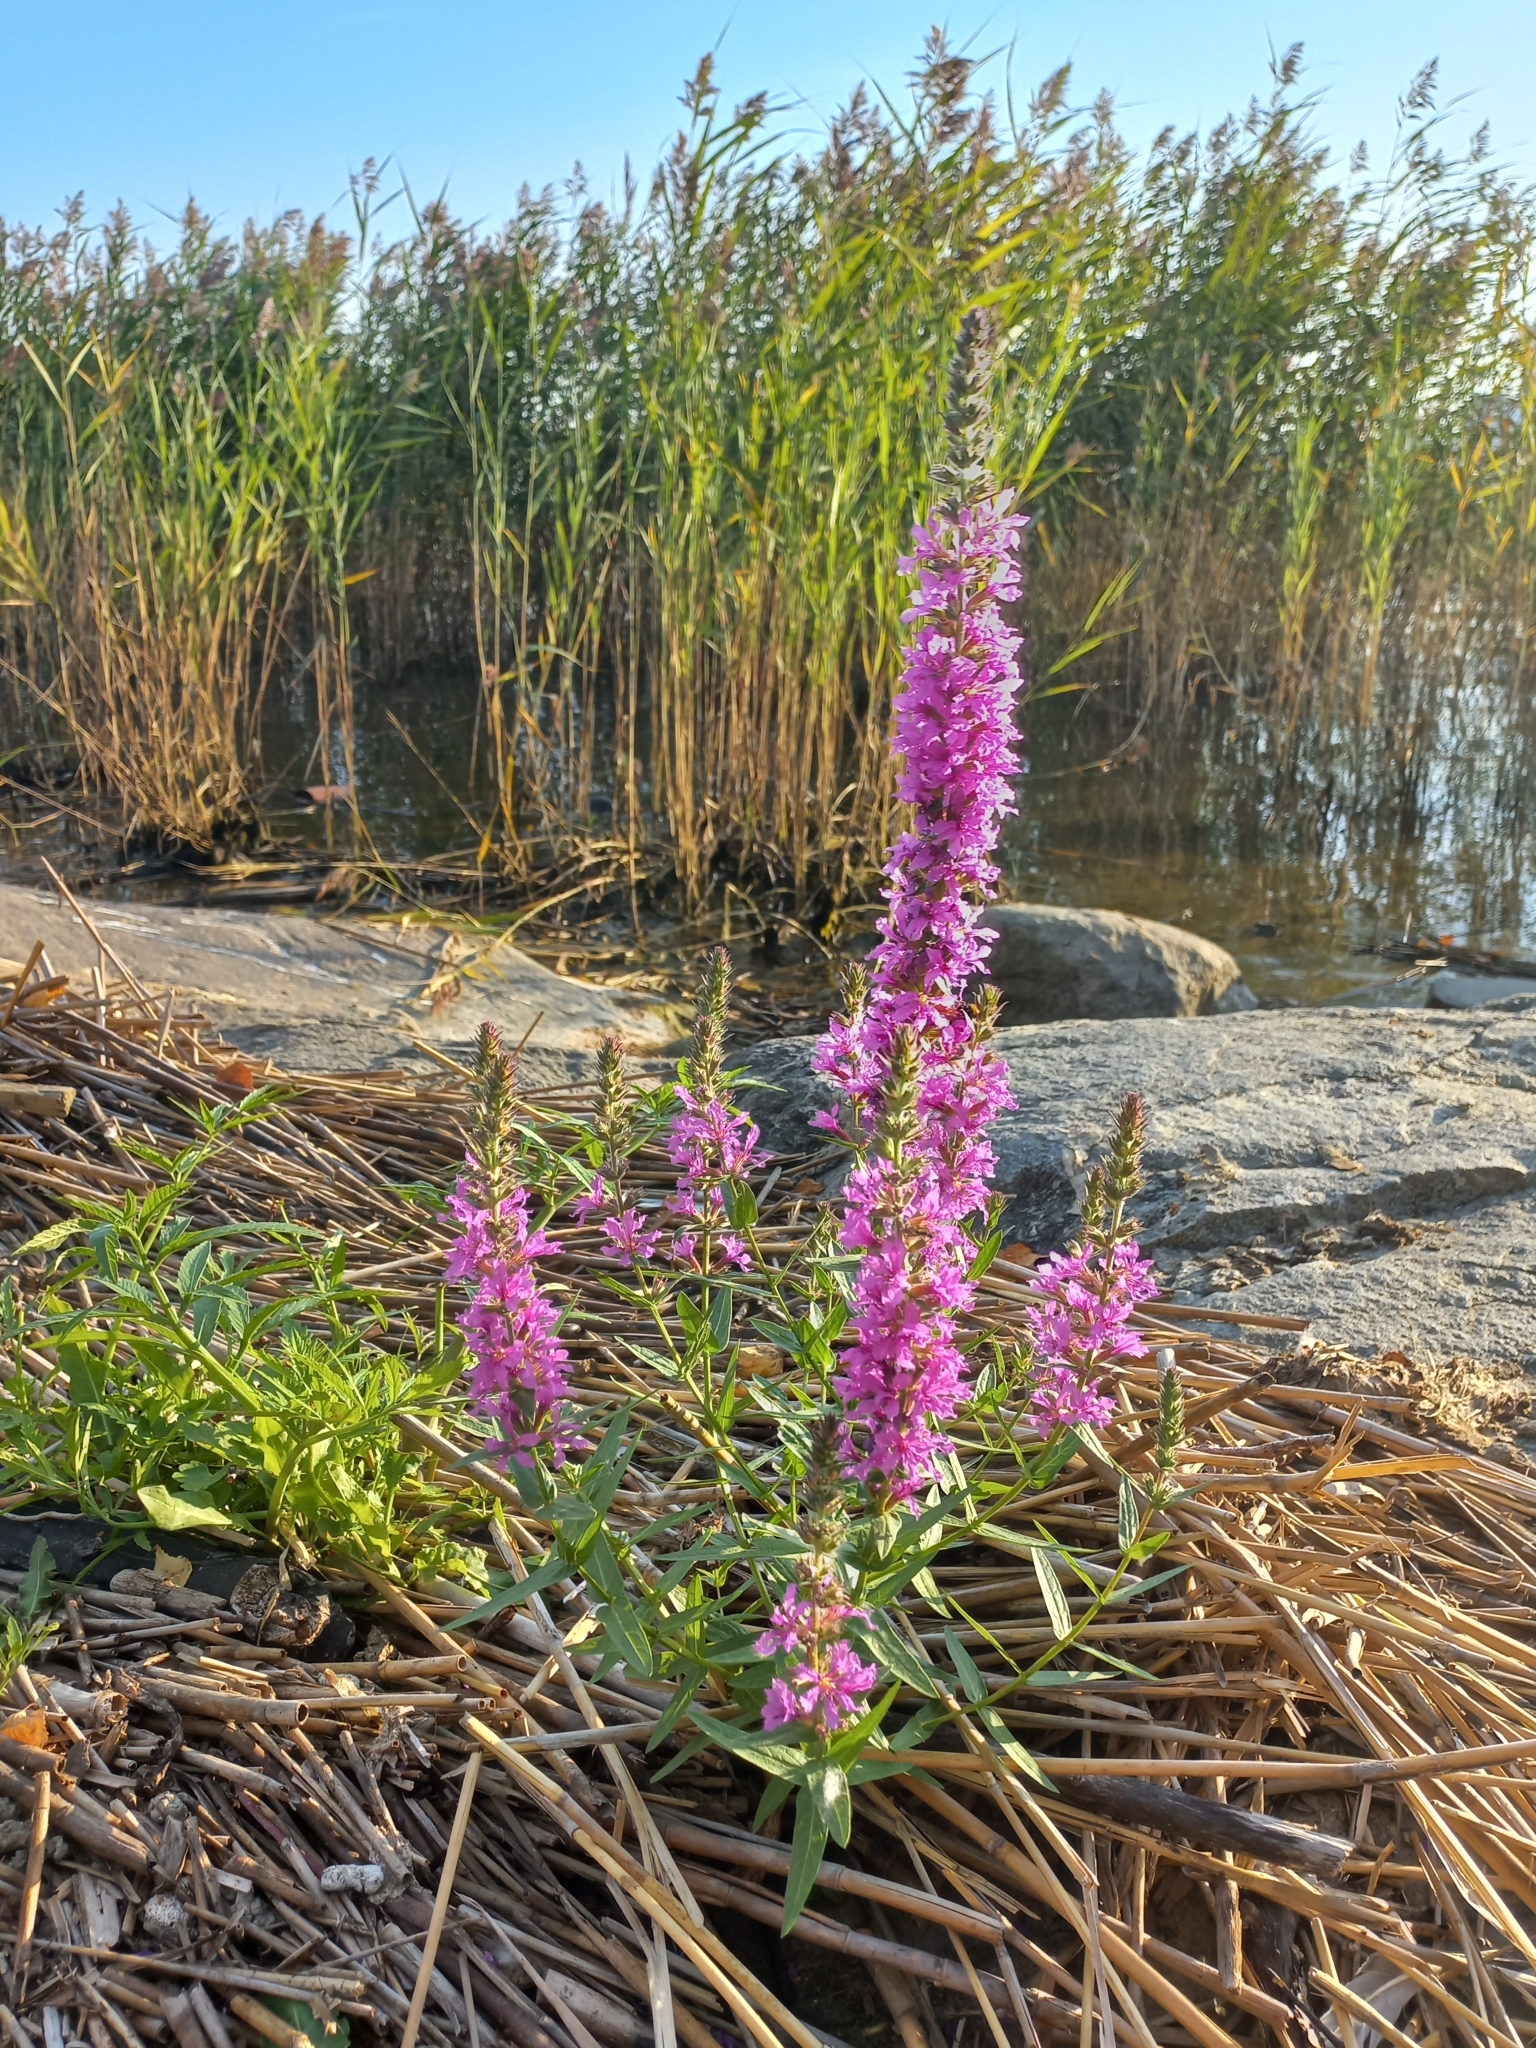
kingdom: Plantae
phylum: Tracheophyta
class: Magnoliopsida
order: Myrtales
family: Lythraceae
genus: Lythrum
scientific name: Lythrum salicaria
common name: Purple loosestrife
